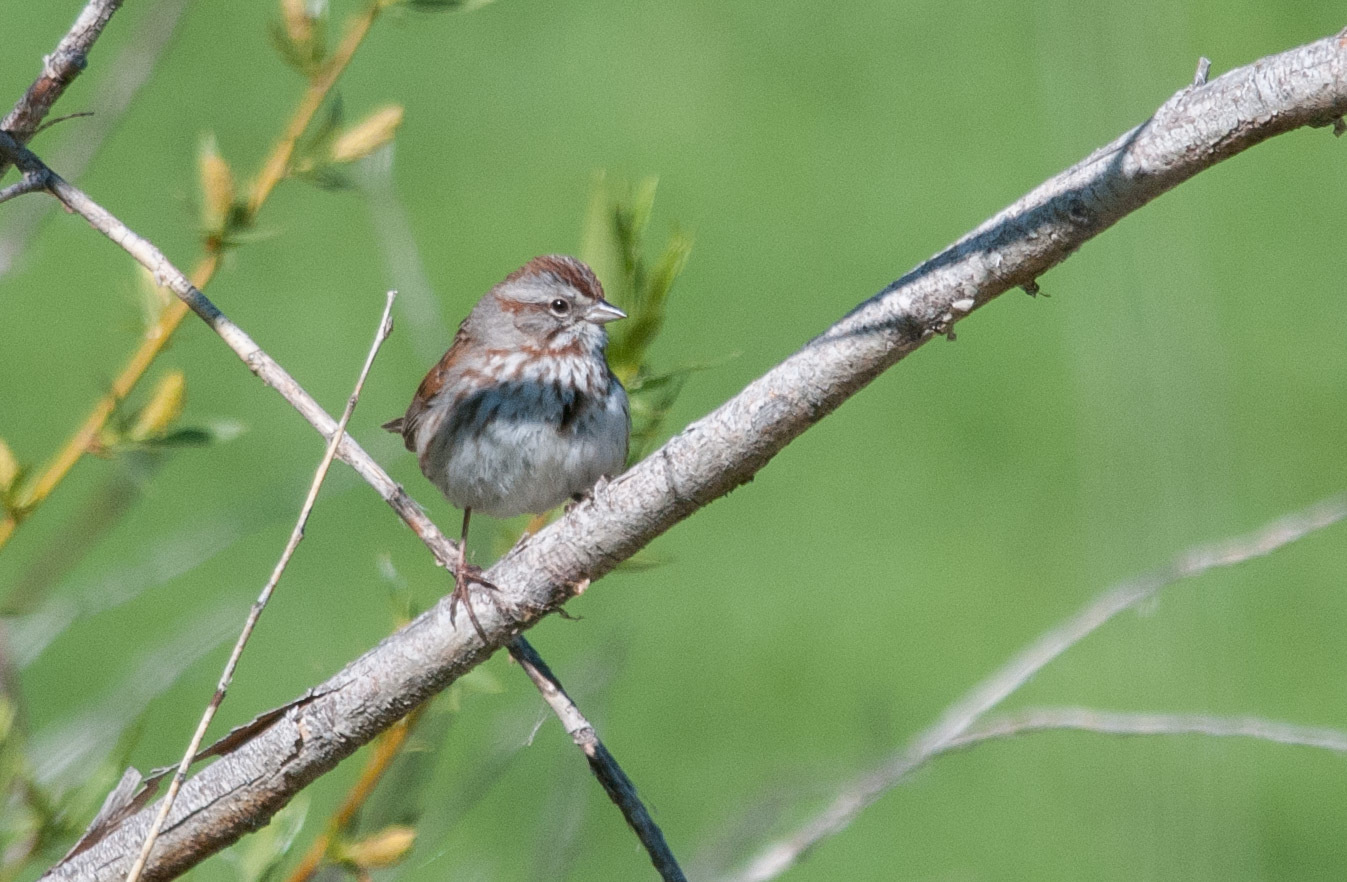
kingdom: Animalia
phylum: Chordata
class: Aves
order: Passeriformes
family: Passerellidae
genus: Melospiza
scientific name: Melospiza melodia
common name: Song sparrow
